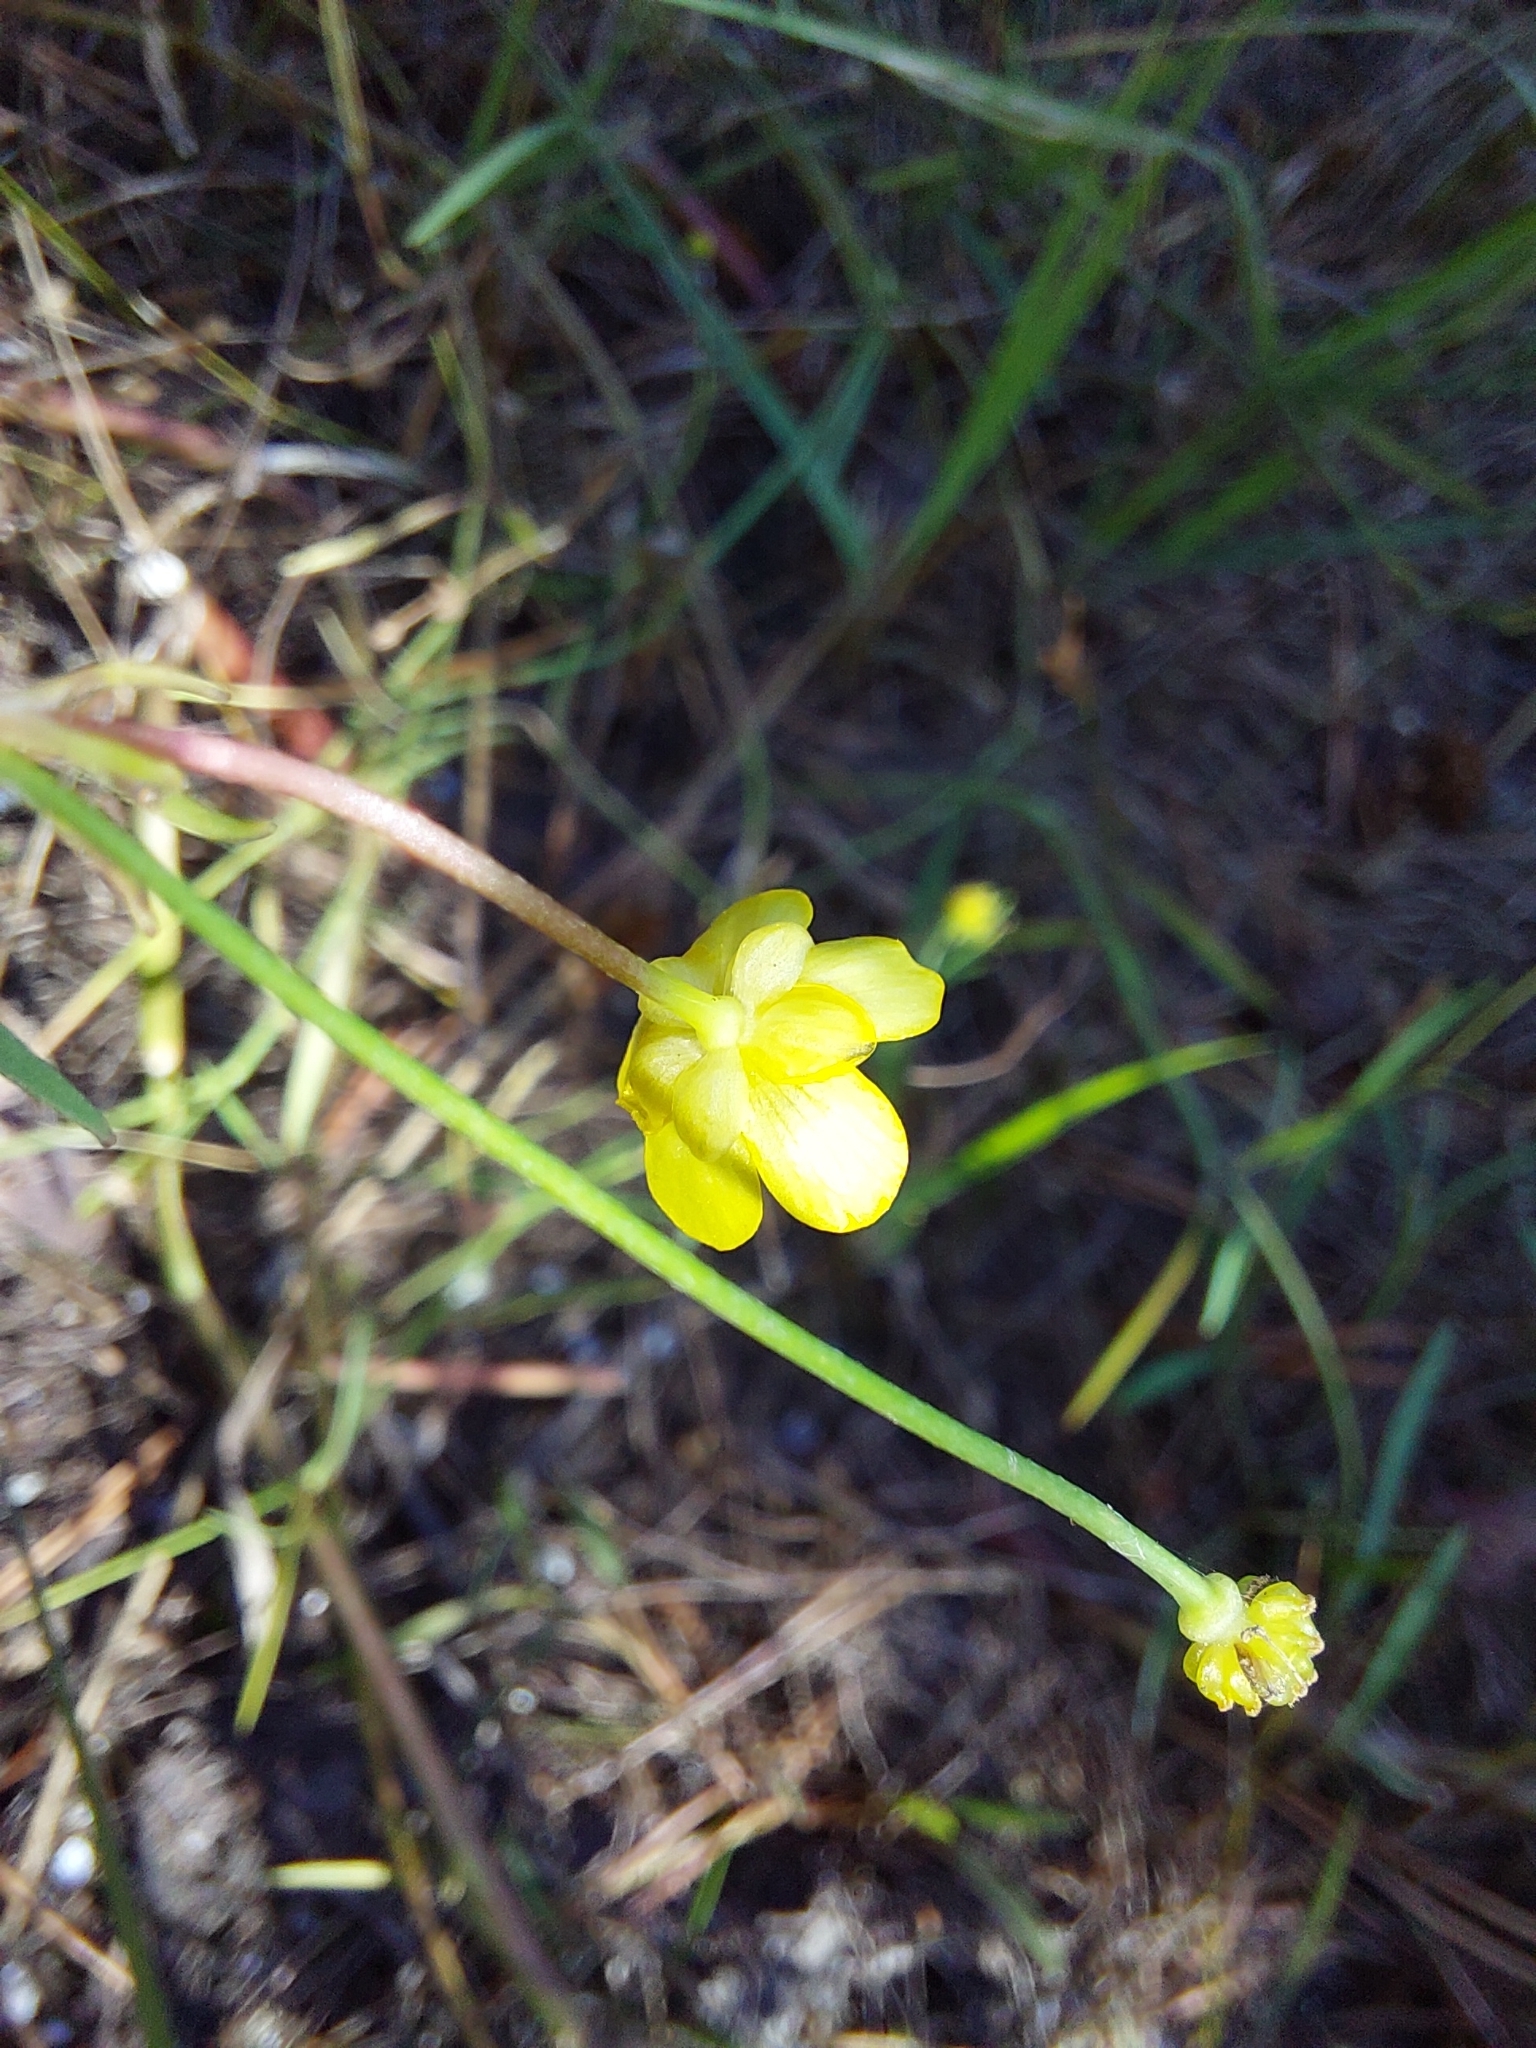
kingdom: Plantae
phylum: Tracheophyta
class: Magnoliopsida
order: Ranunculales
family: Ranunculaceae
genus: Ranunculus
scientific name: Ranunculus flammula
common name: Lesser spearwort
